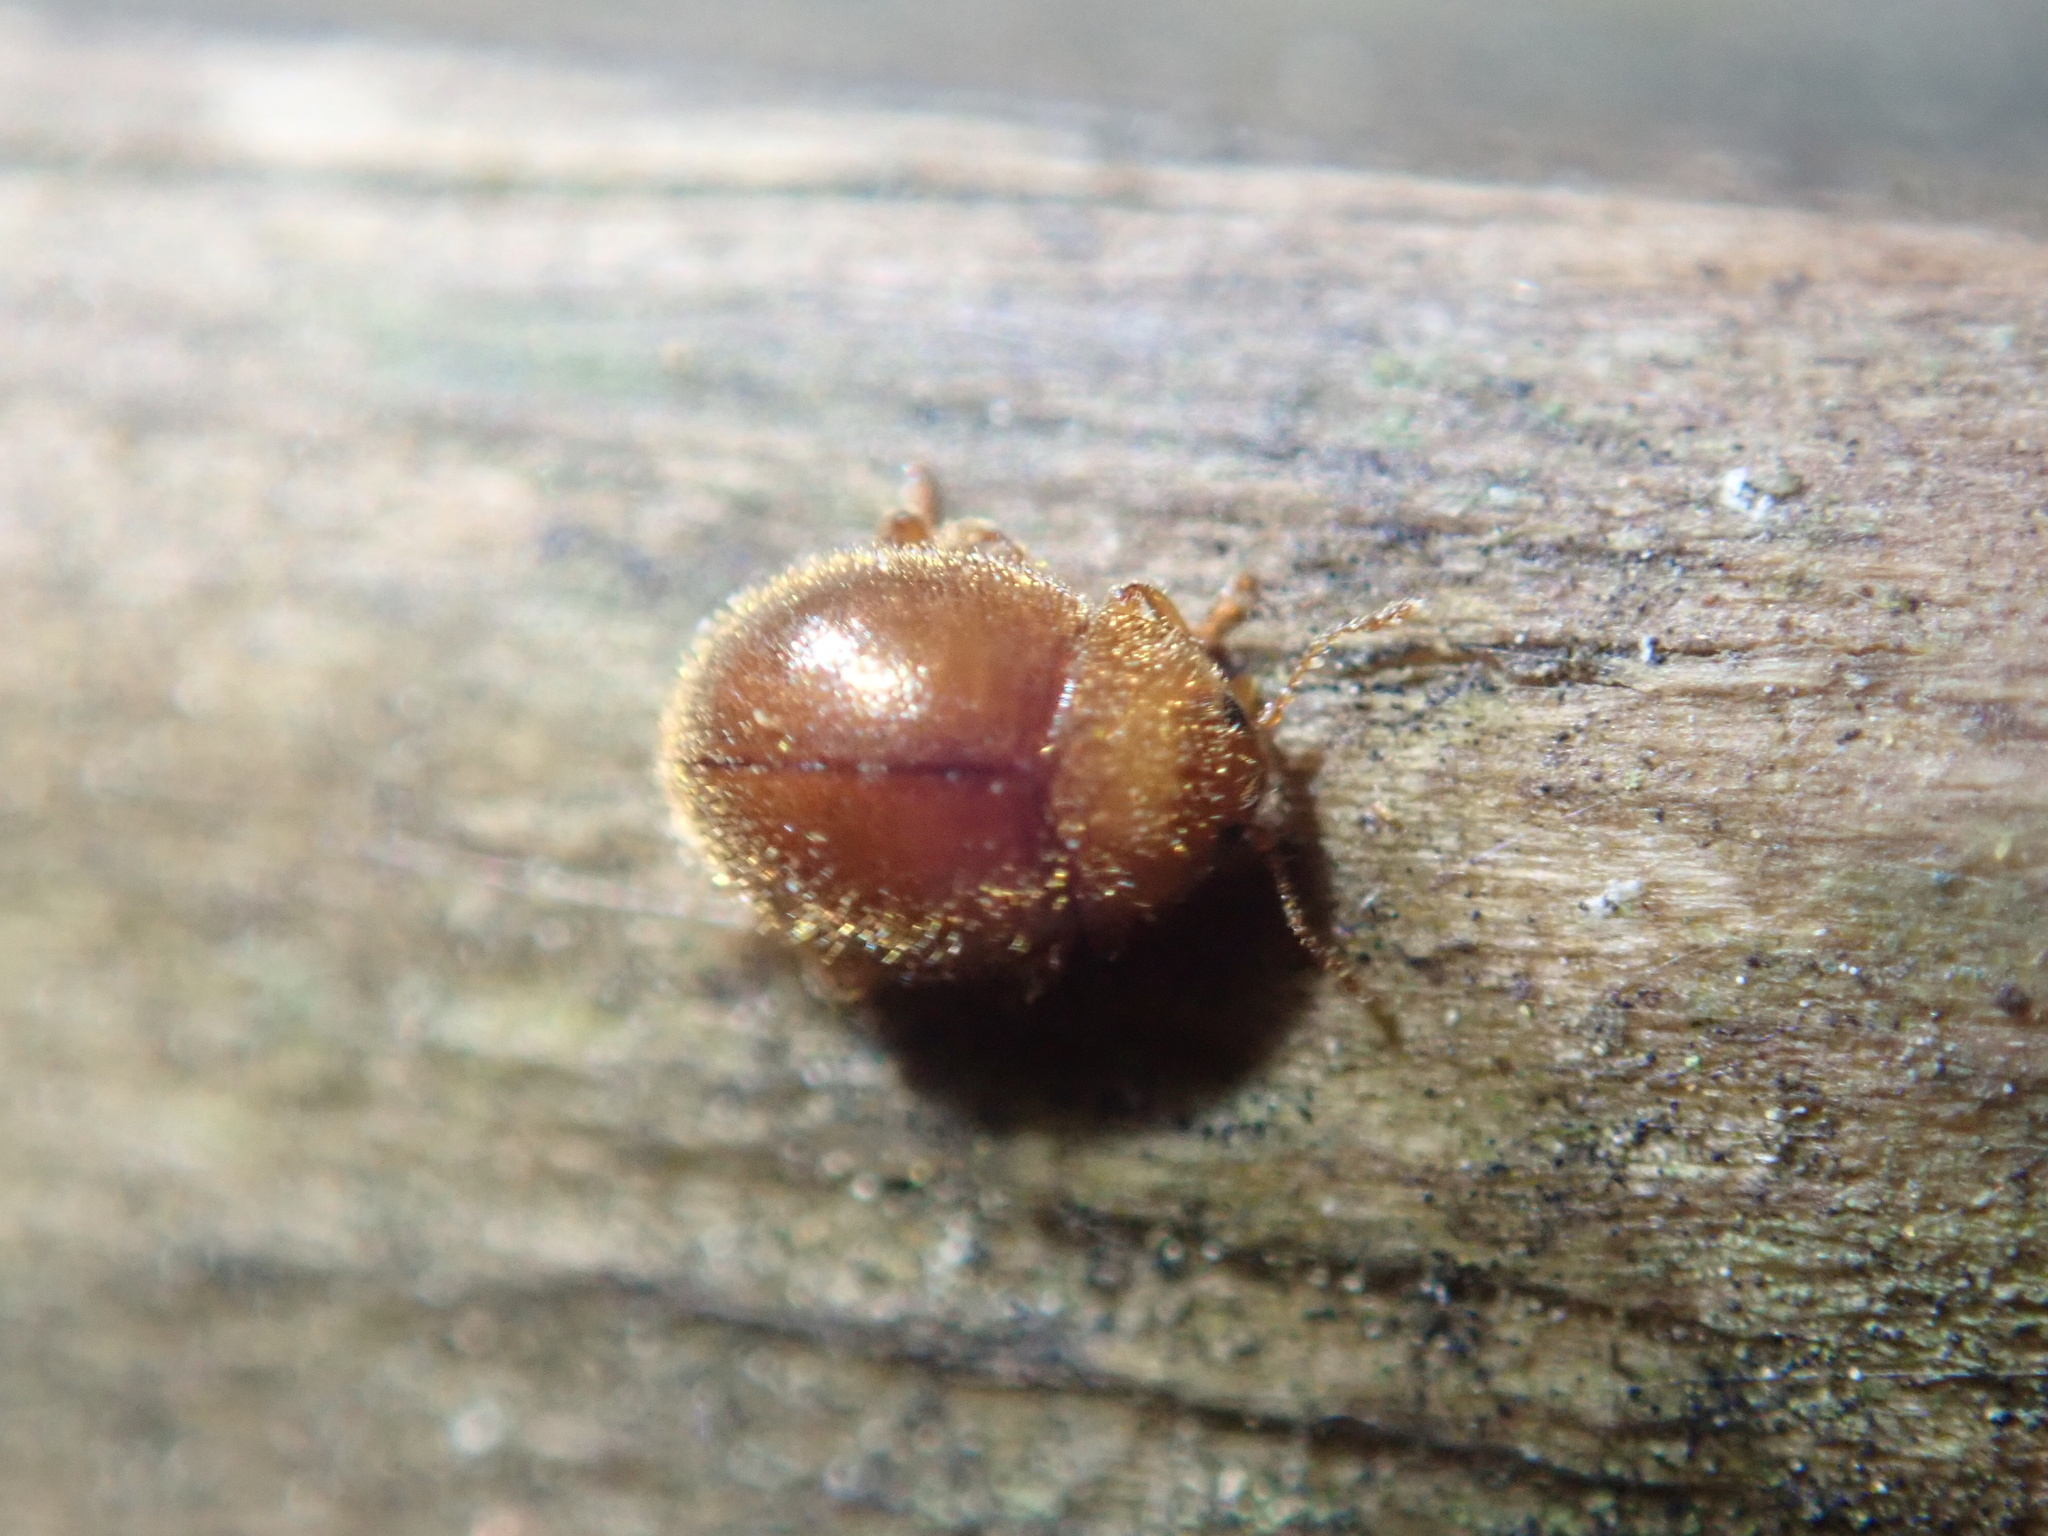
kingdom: Animalia
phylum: Arthropoda
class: Insecta
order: Coleoptera
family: Coccinellidae
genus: Adoxellus
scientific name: Adoxellus
